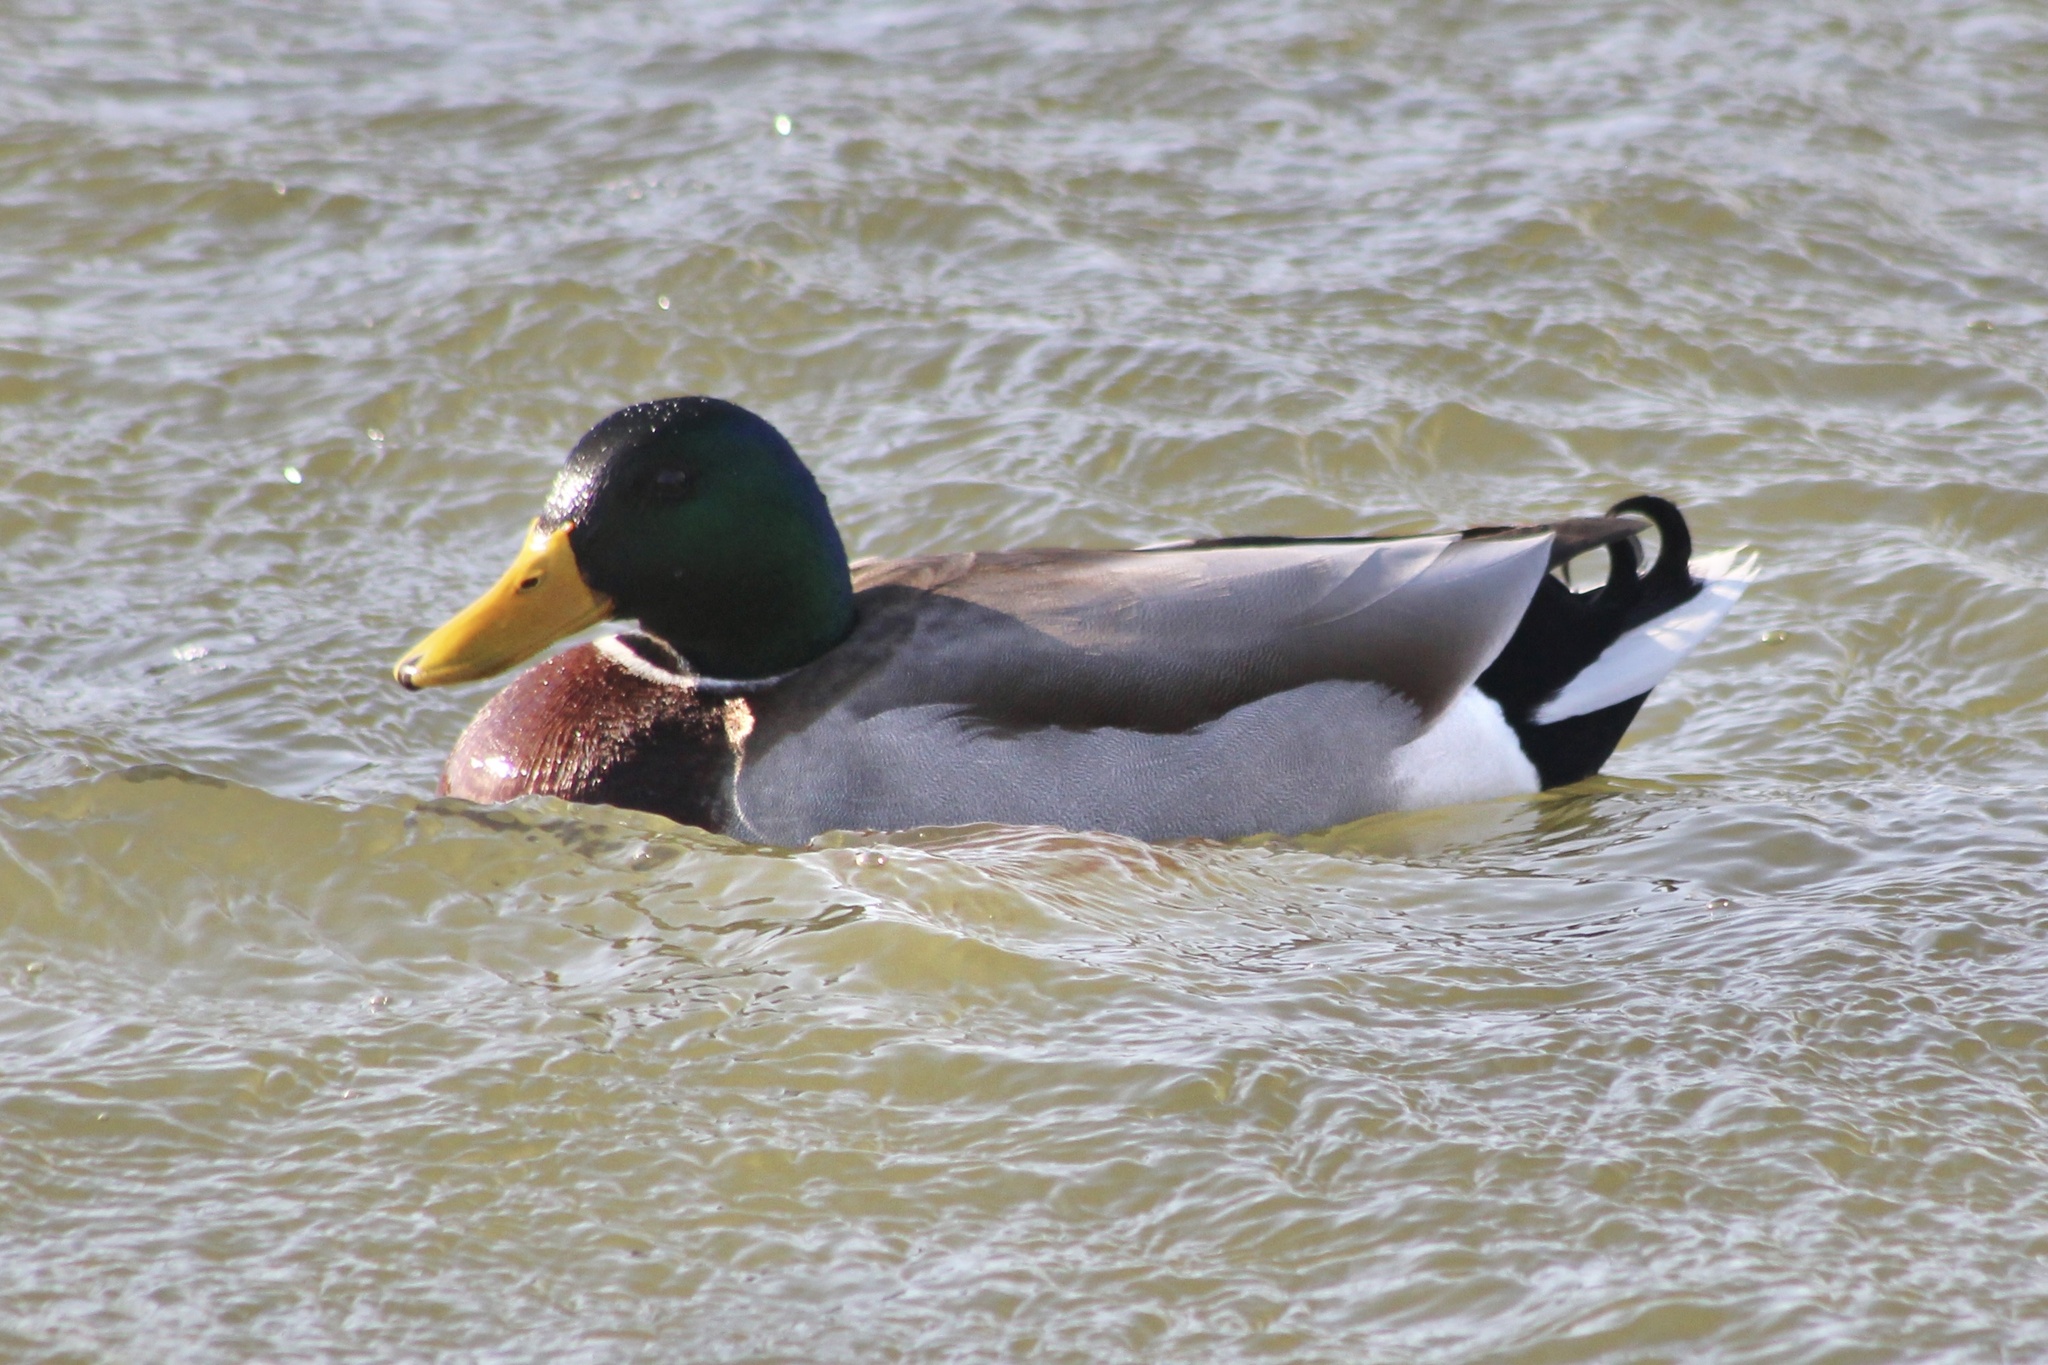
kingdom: Animalia
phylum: Chordata
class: Aves
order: Anseriformes
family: Anatidae
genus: Anas
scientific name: Anas platyrhynchos
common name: Mallard
